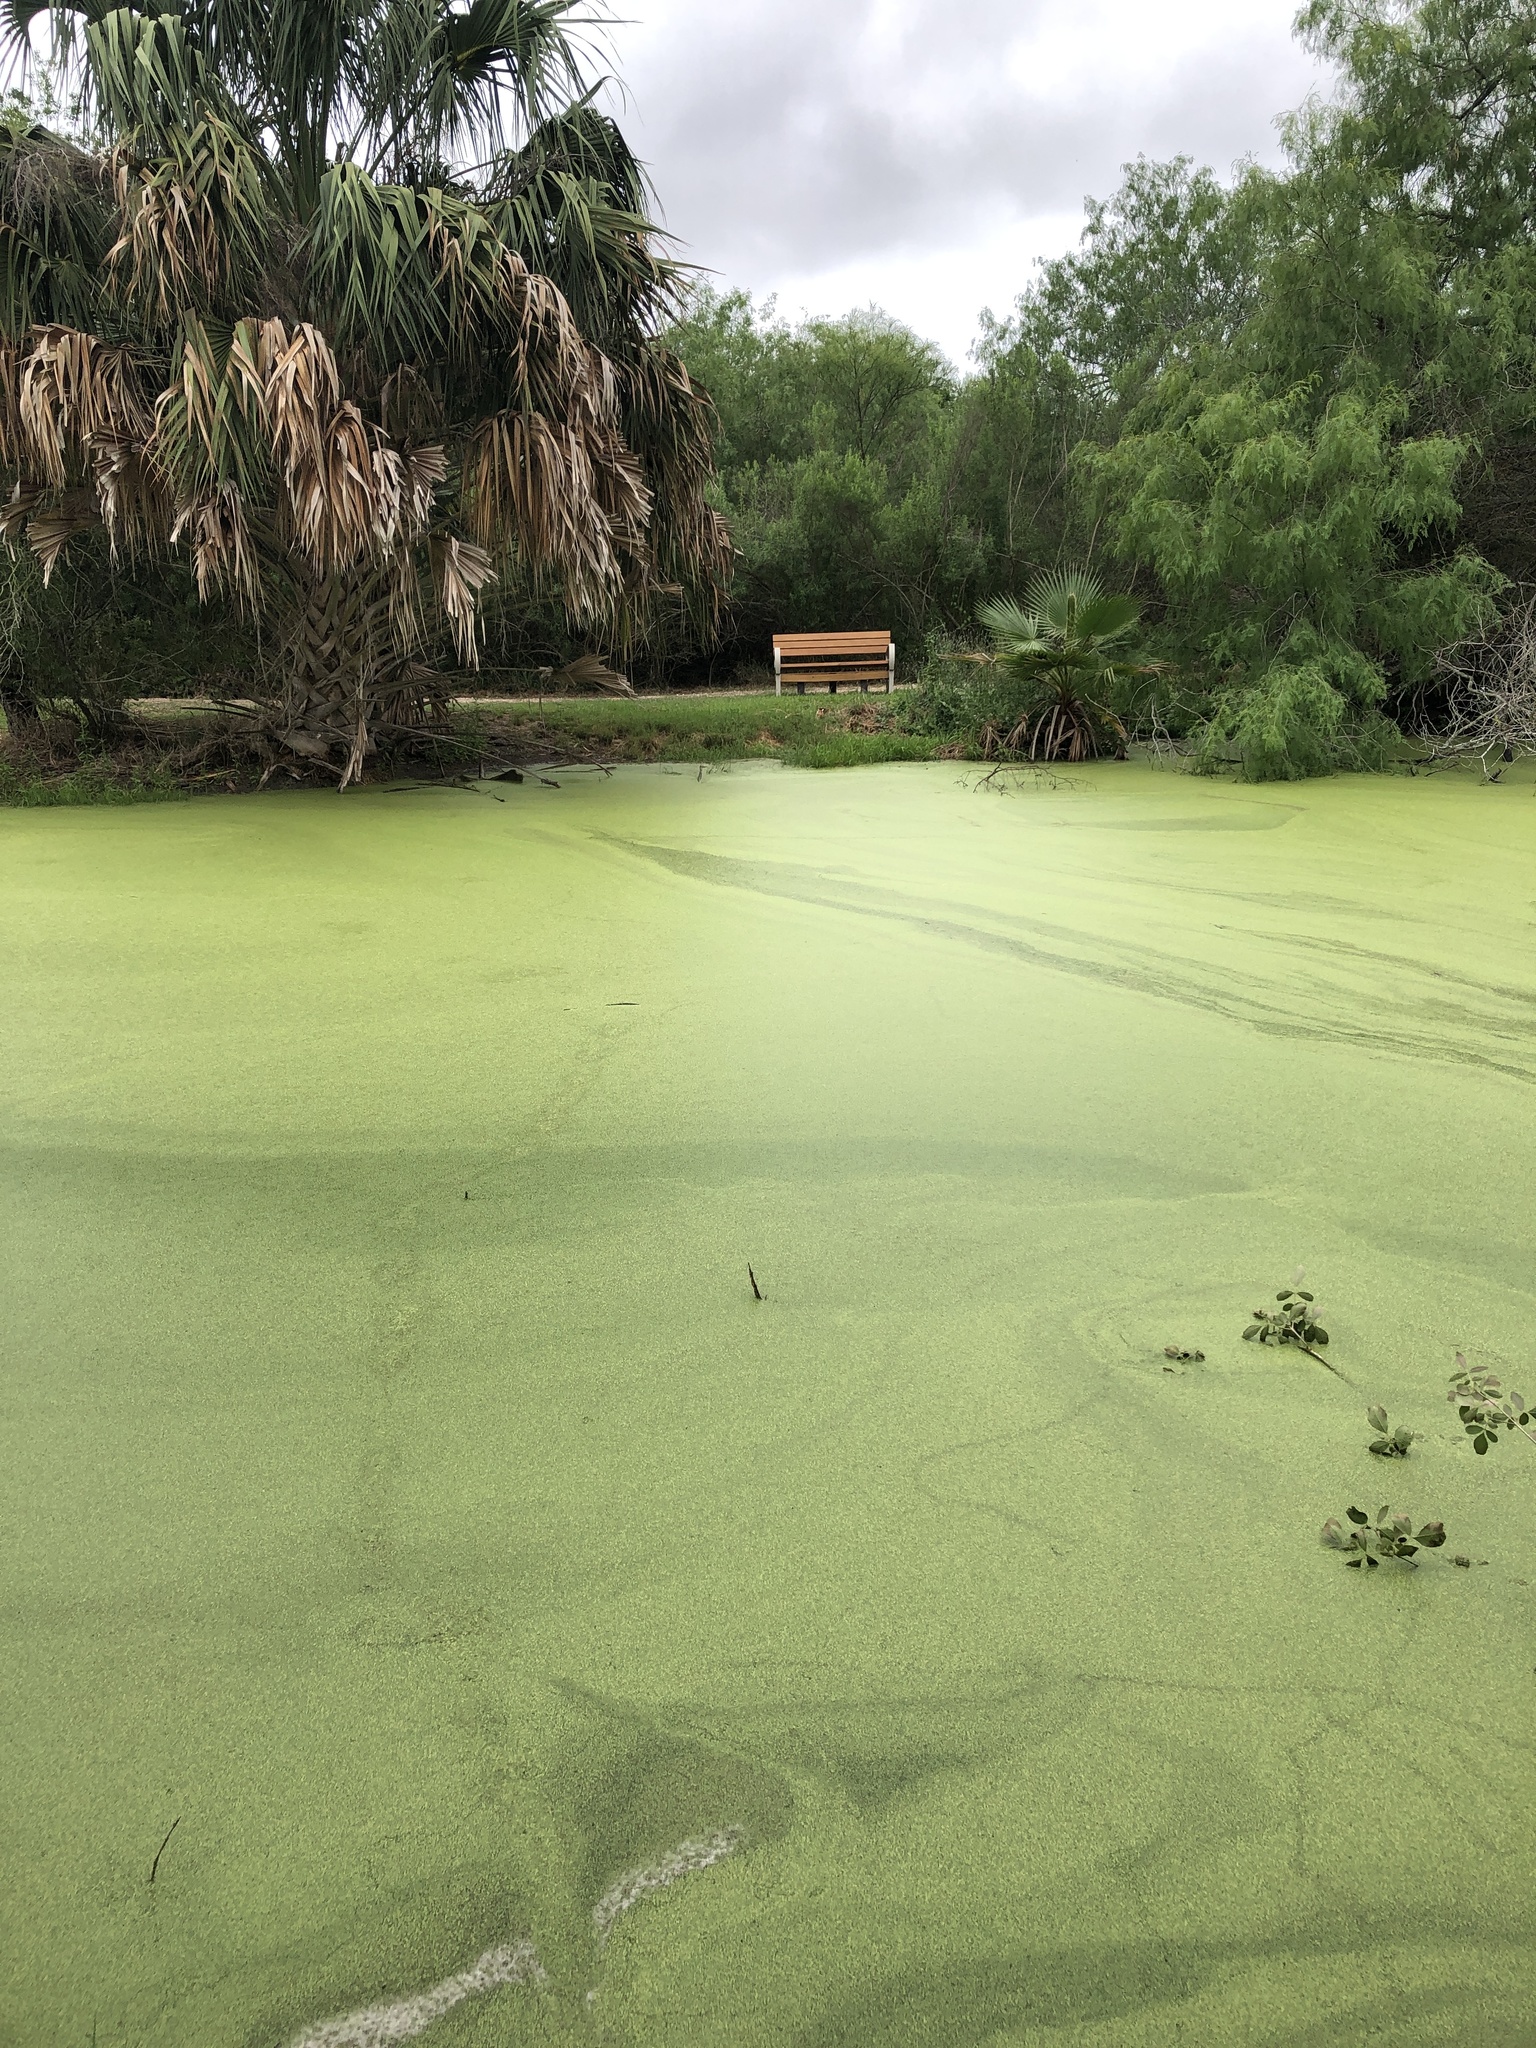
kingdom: Animalia
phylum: Chordata
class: Amphibia
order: Anura
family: Microhylidae
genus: Gastrophryne
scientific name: Gastrophryne olivacea
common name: Great plains narrow-mouthed toad
